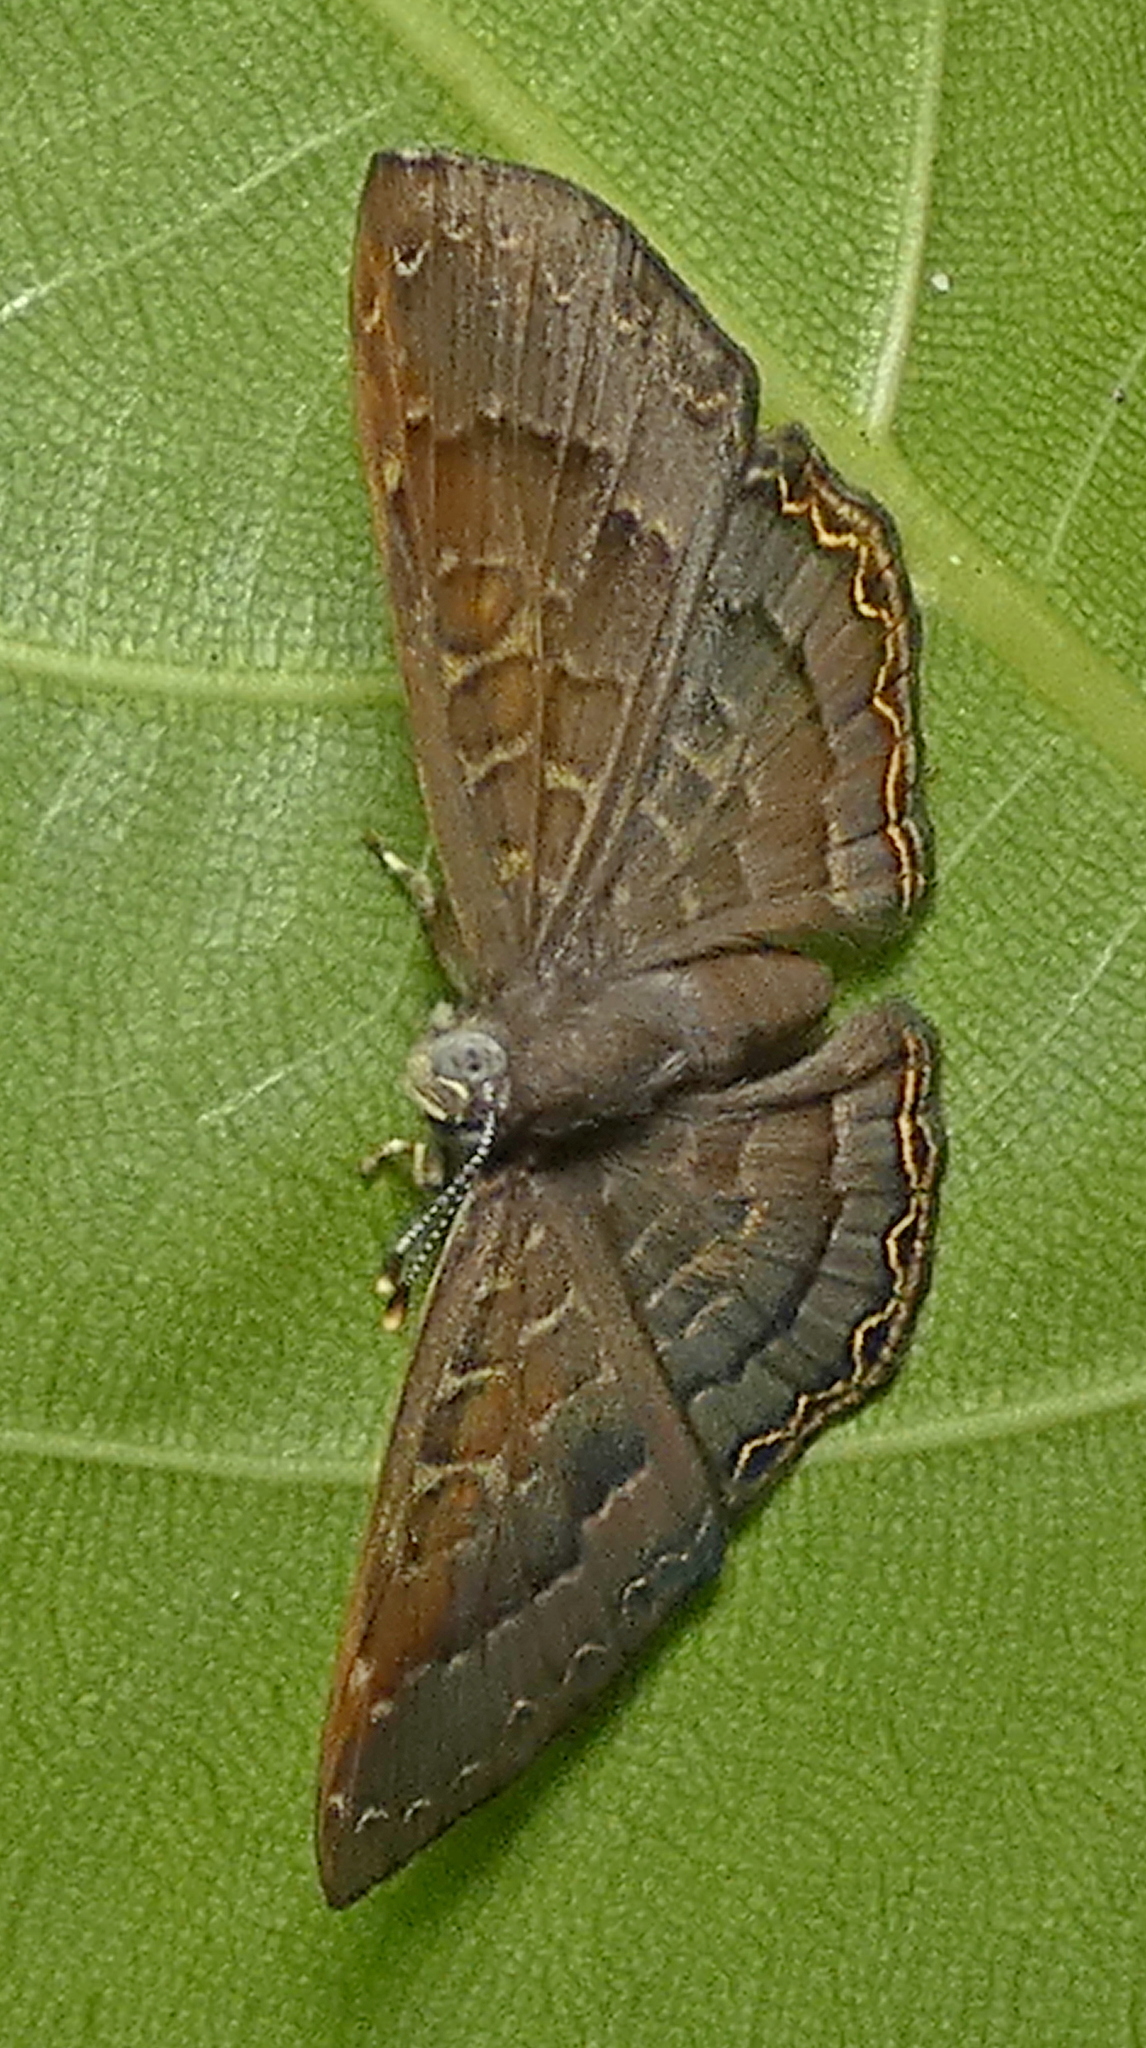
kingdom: Animalia
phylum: Arthropoda
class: Insecta
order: Diptera
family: Ephydridae
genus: Napaea
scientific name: Napaea phryxe
